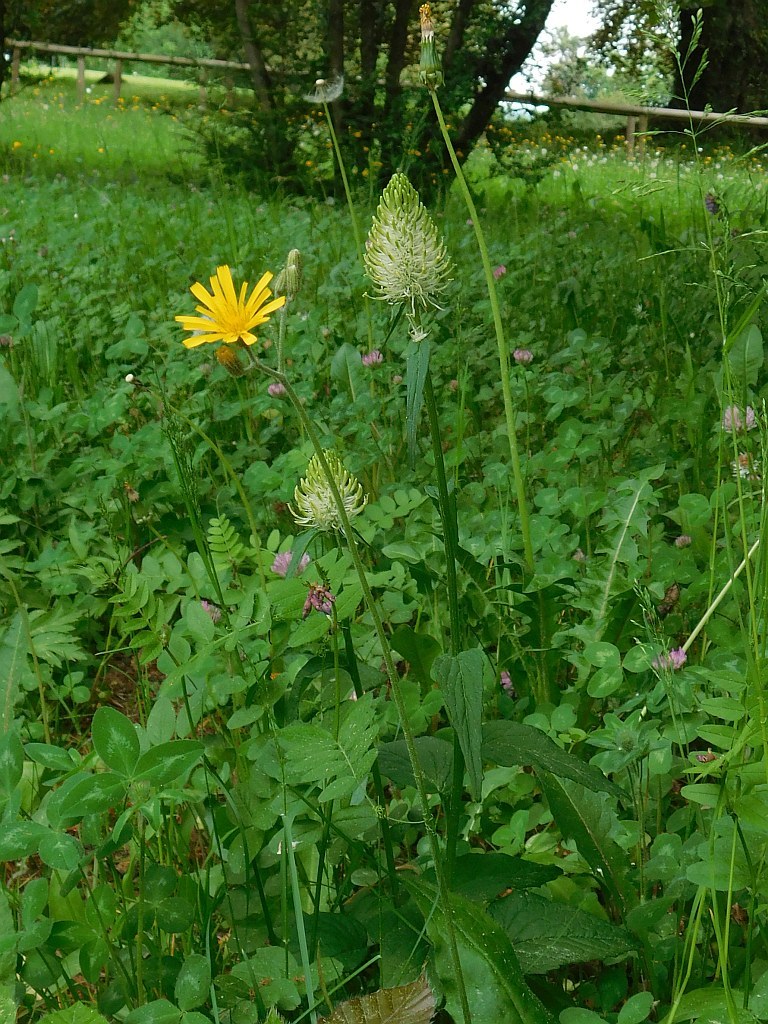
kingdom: Plantae
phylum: Tracheophyta
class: Magnoliopsida
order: Asterales
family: Campanulaceae
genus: Phyteuma
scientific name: Phyteuma spicatum
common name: Spiked rampion
